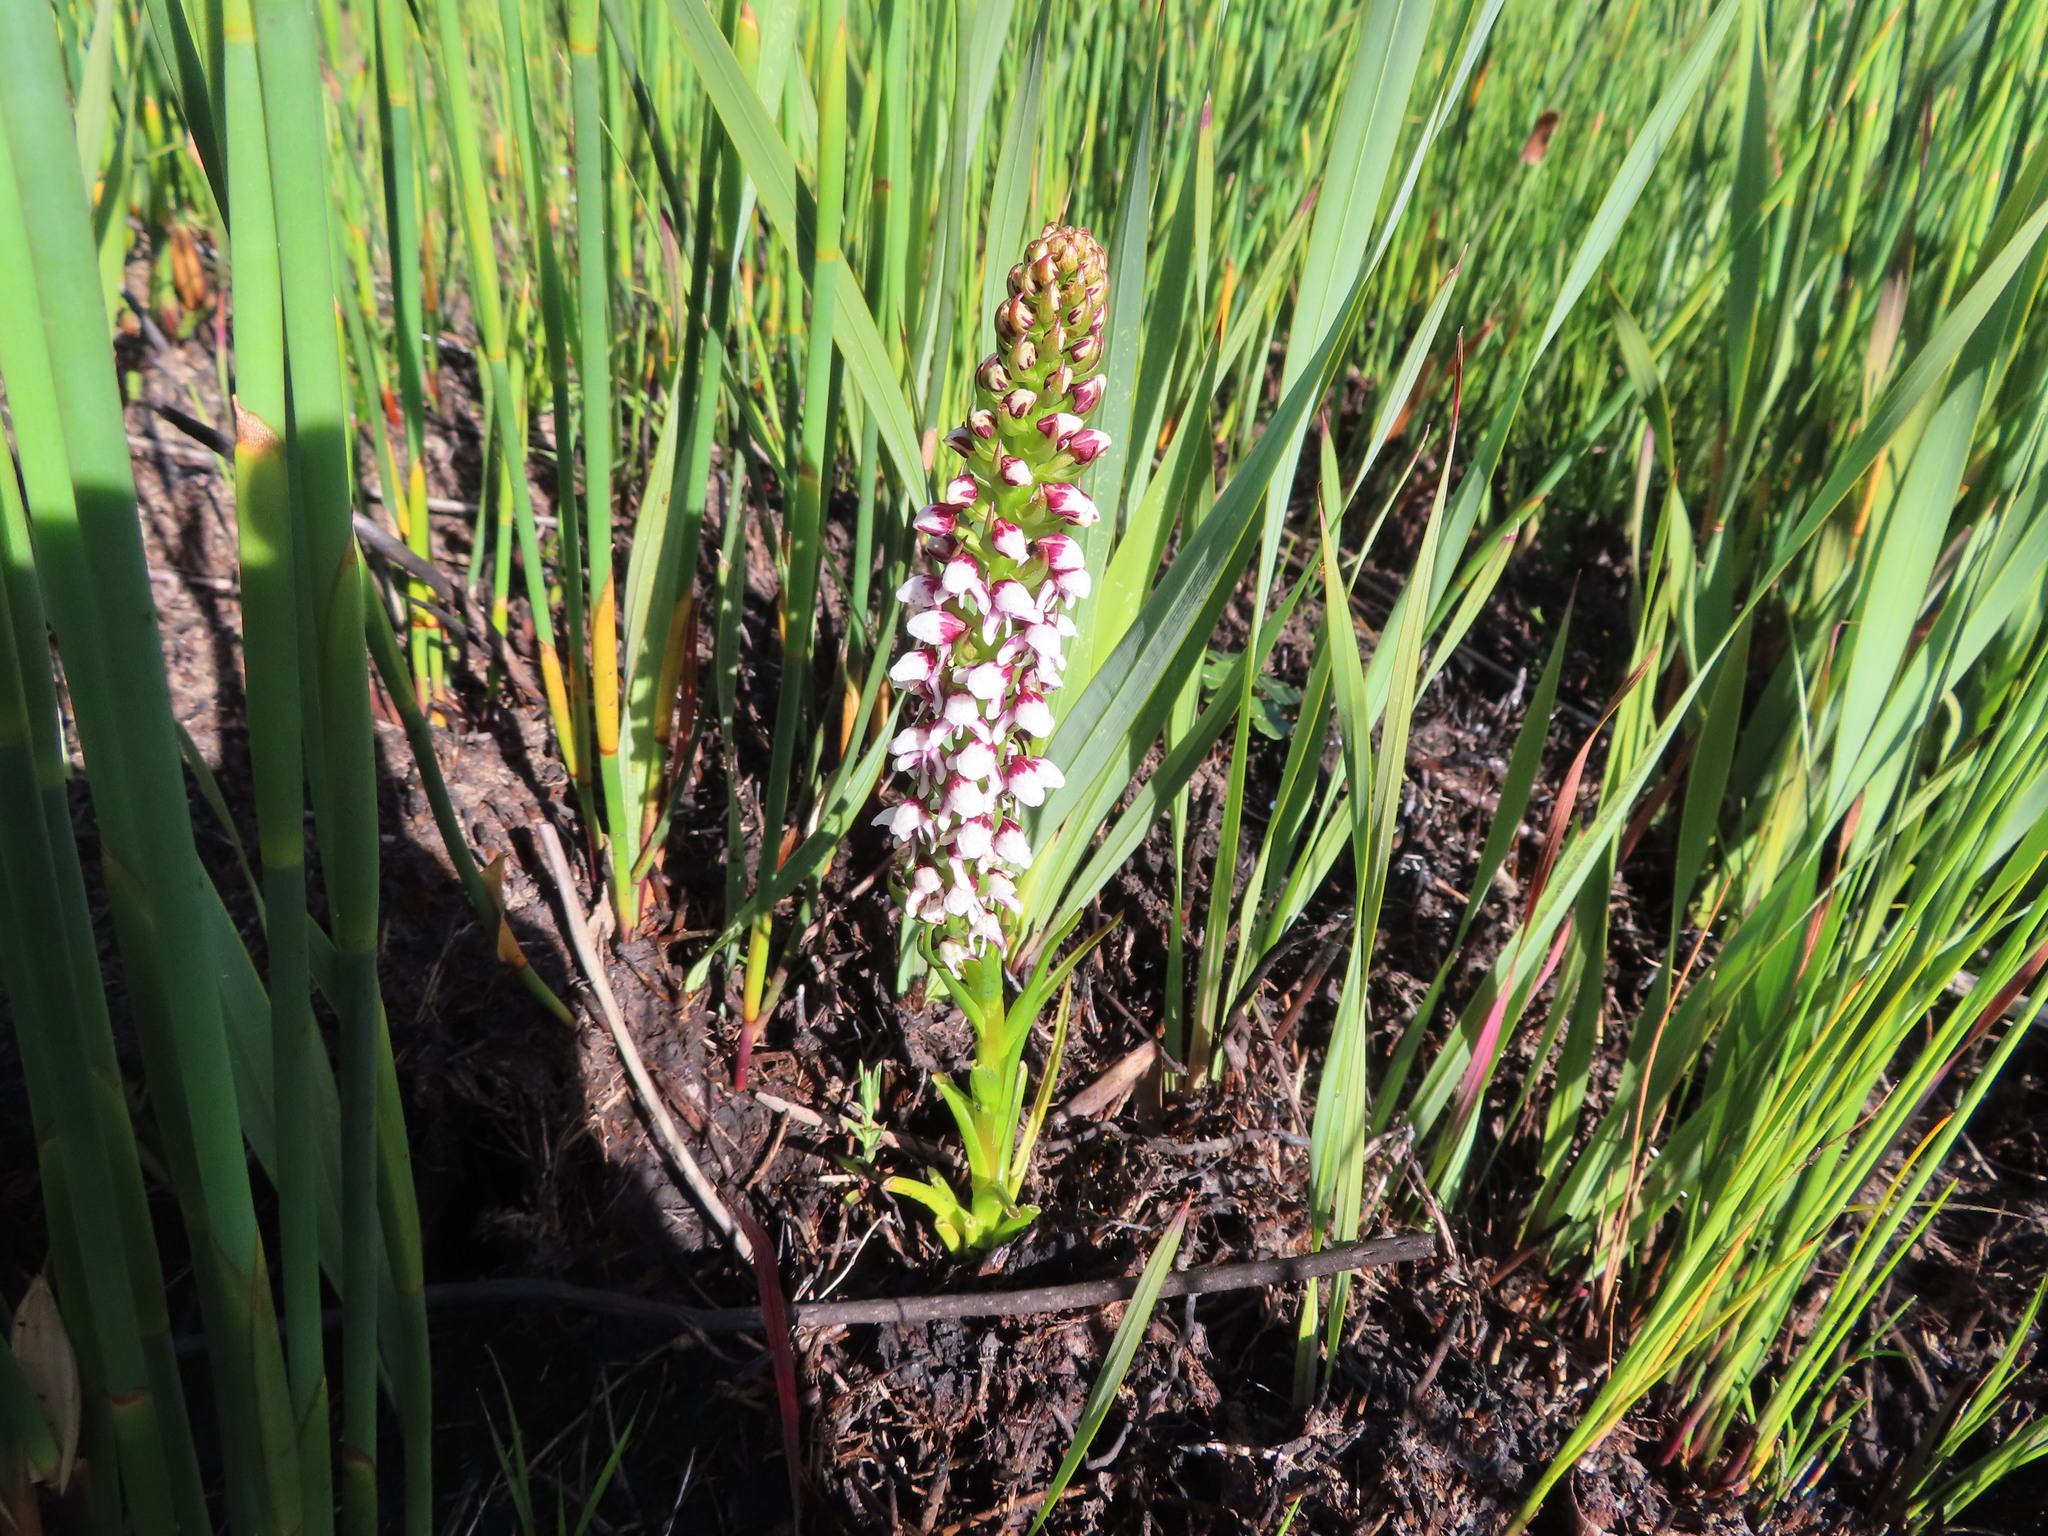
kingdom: Plantae
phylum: Tracheophyta
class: Liliopsida
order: Asparagales
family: Orchidaceae
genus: Disa
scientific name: Disa obtusa
